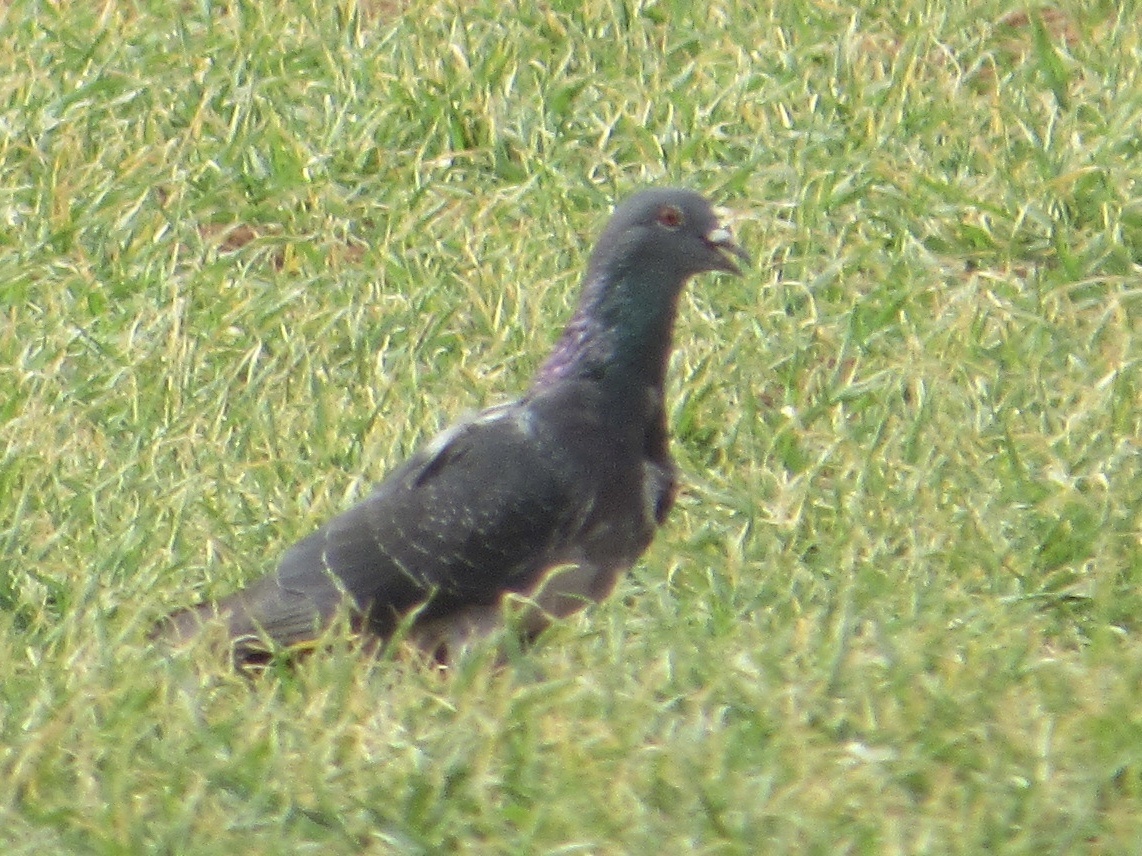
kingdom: Animalia
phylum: Chordata
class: Aves
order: Columbiformes
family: Columbidae
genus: Columba
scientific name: Columba livia
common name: Rock pigeon
